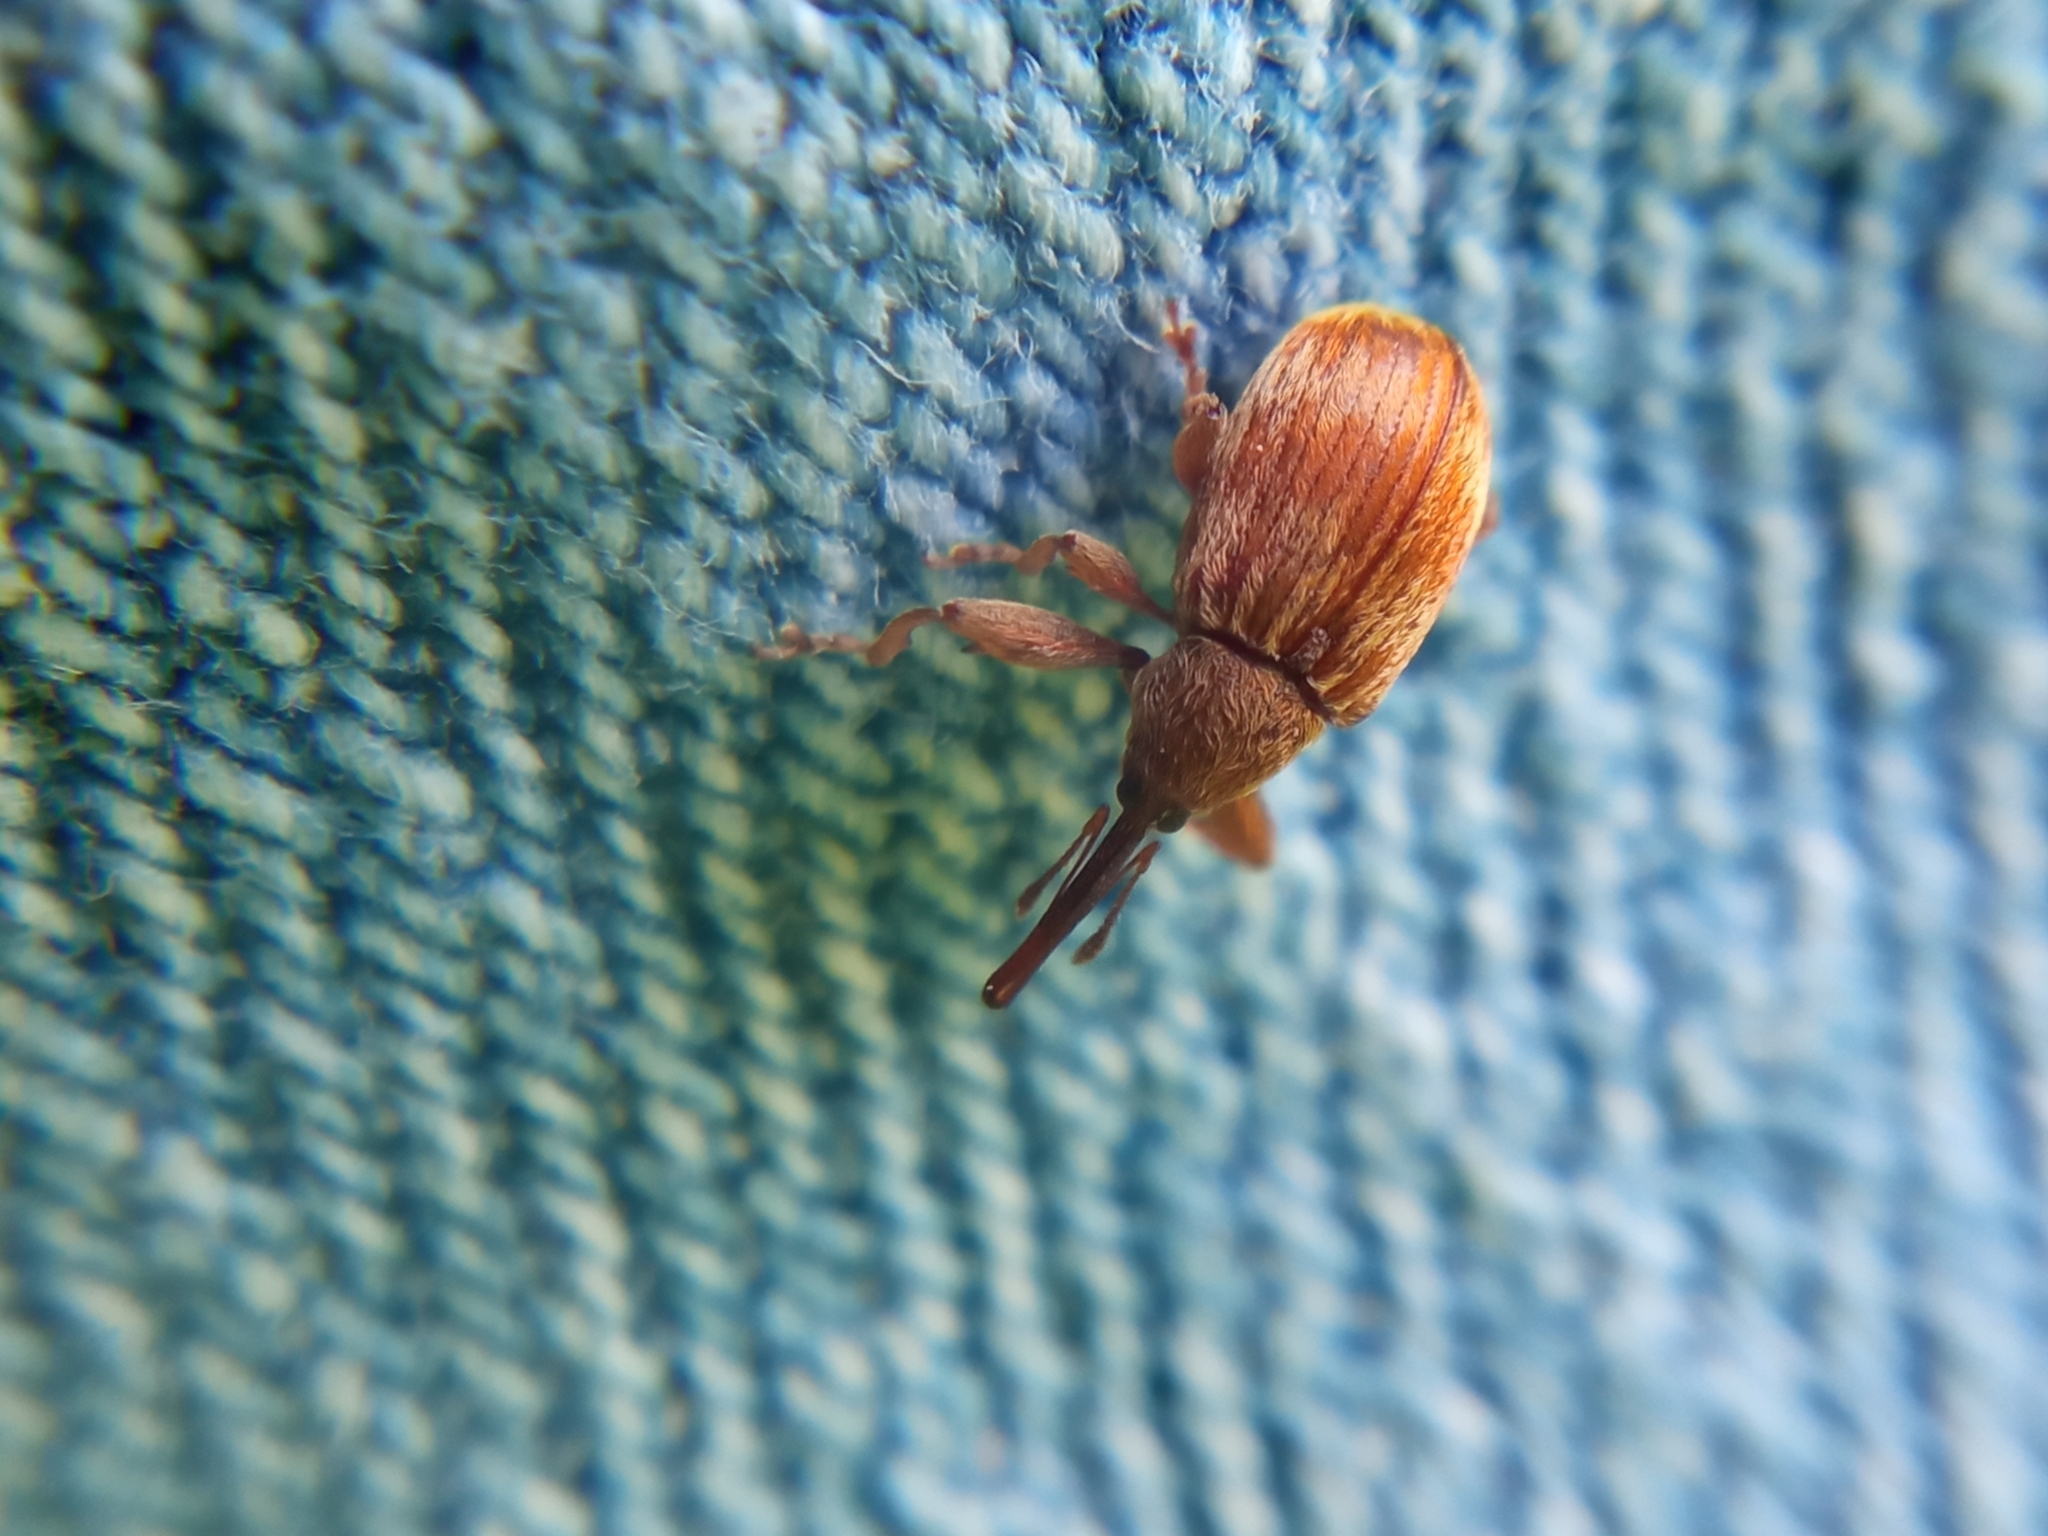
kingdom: Animalia
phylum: Arthropoda
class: Insecta
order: Coleoptera
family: Curculionidae
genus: Anthonomus
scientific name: Anthonomus rectirostris
